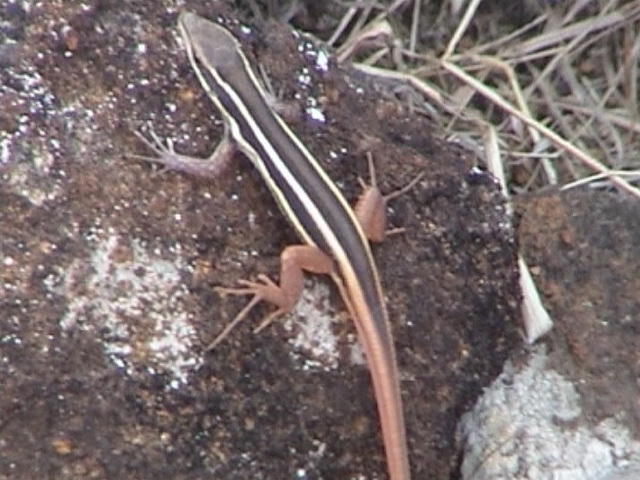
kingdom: Animalia
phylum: Chordata
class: Squamata
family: Lacertidae
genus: Ophisops
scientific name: Ophisops leschenaultii
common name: Leschenault's cabrita
